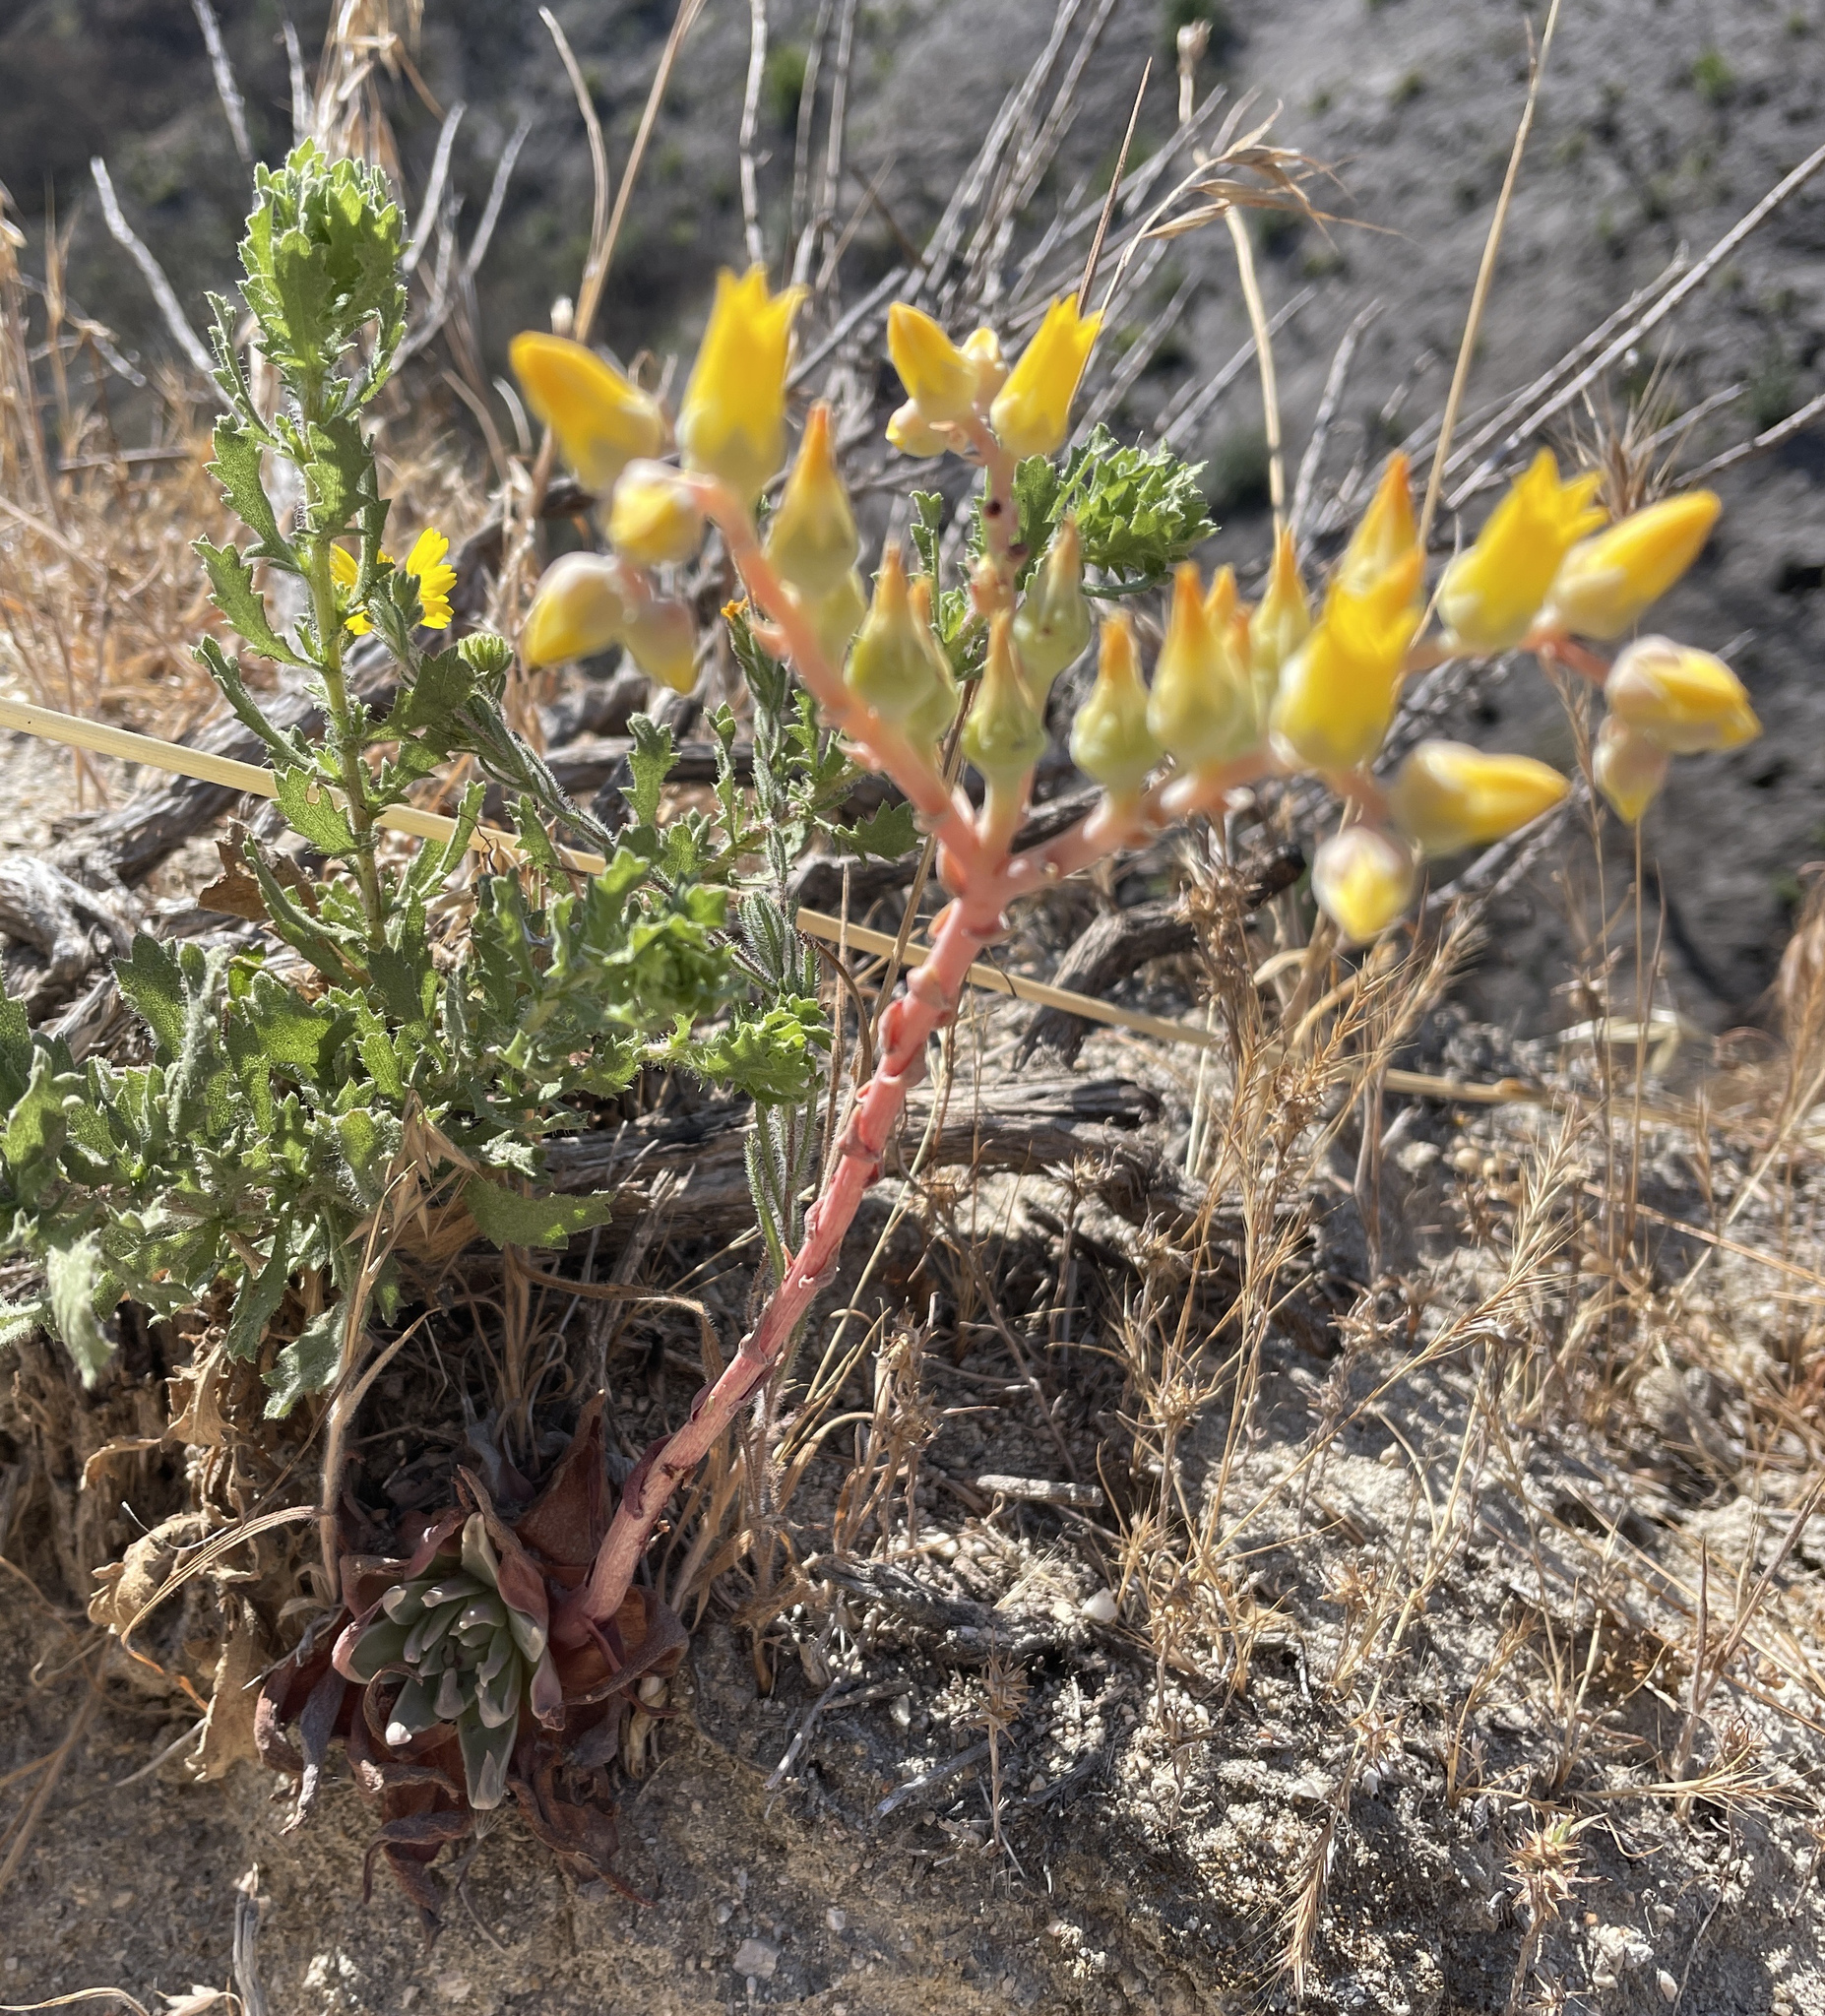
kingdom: Plantae
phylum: Tracheophyta
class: Magnoliopsida
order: Saxifragales
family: Crassulaceae
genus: Dudleya
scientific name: Dudleya caespitosa
